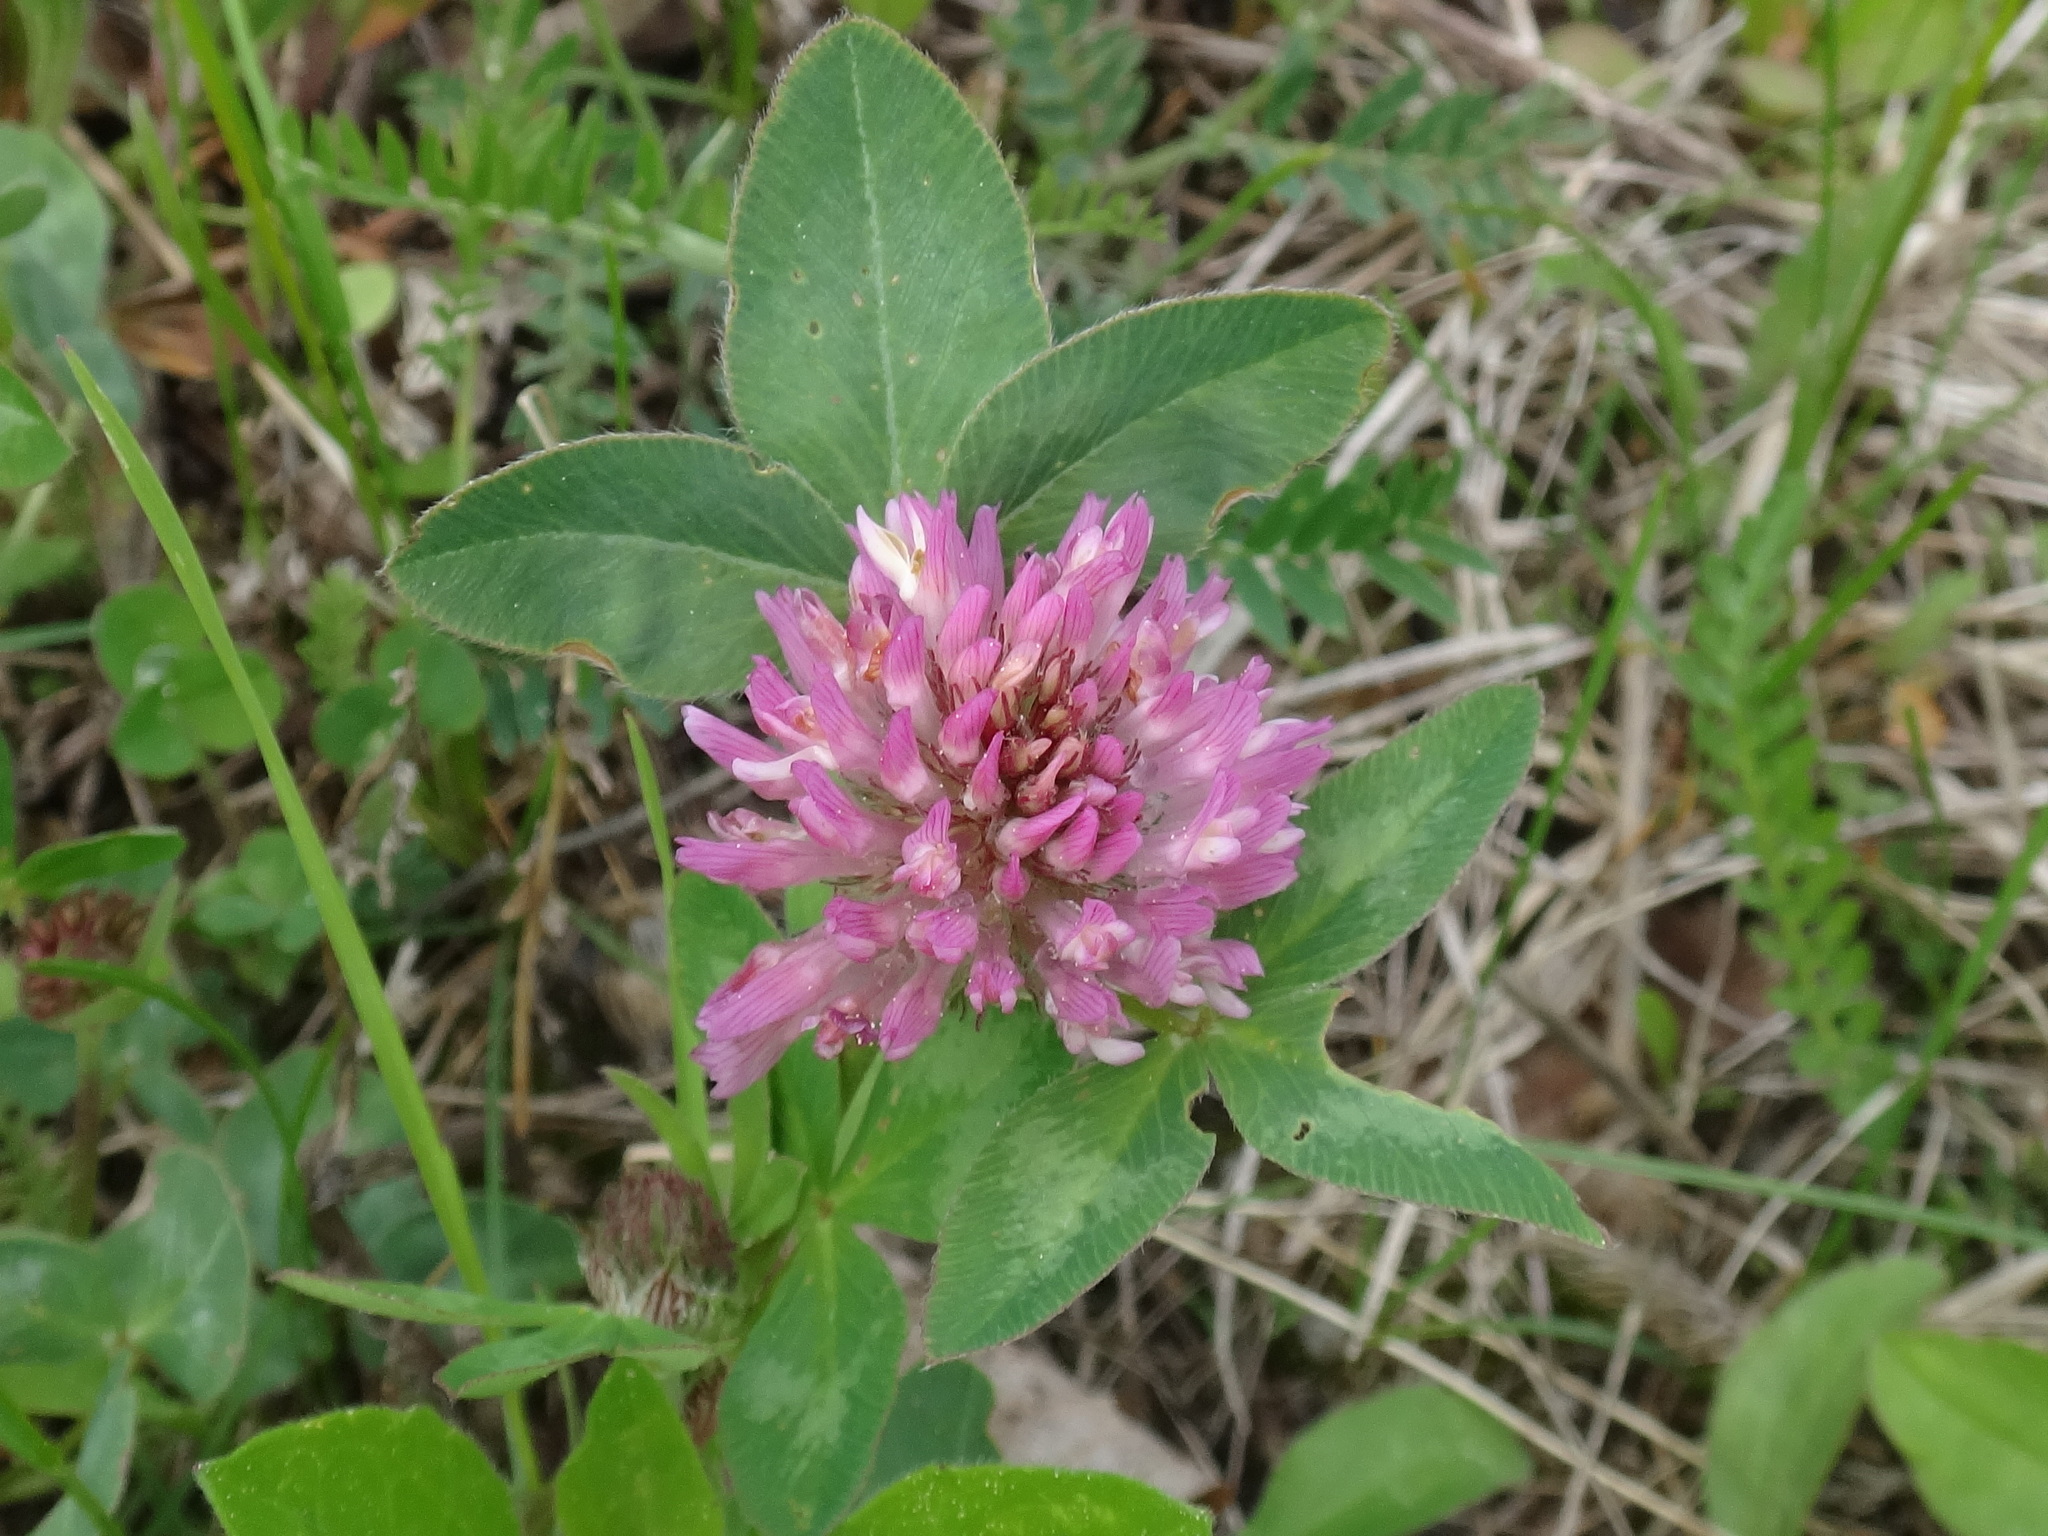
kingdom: Plantae
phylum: Tracheophyta
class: Magnoliopsida
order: Fabales
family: Fabaceae
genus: Trifolium
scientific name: Trifolium pratense
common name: Red clover
